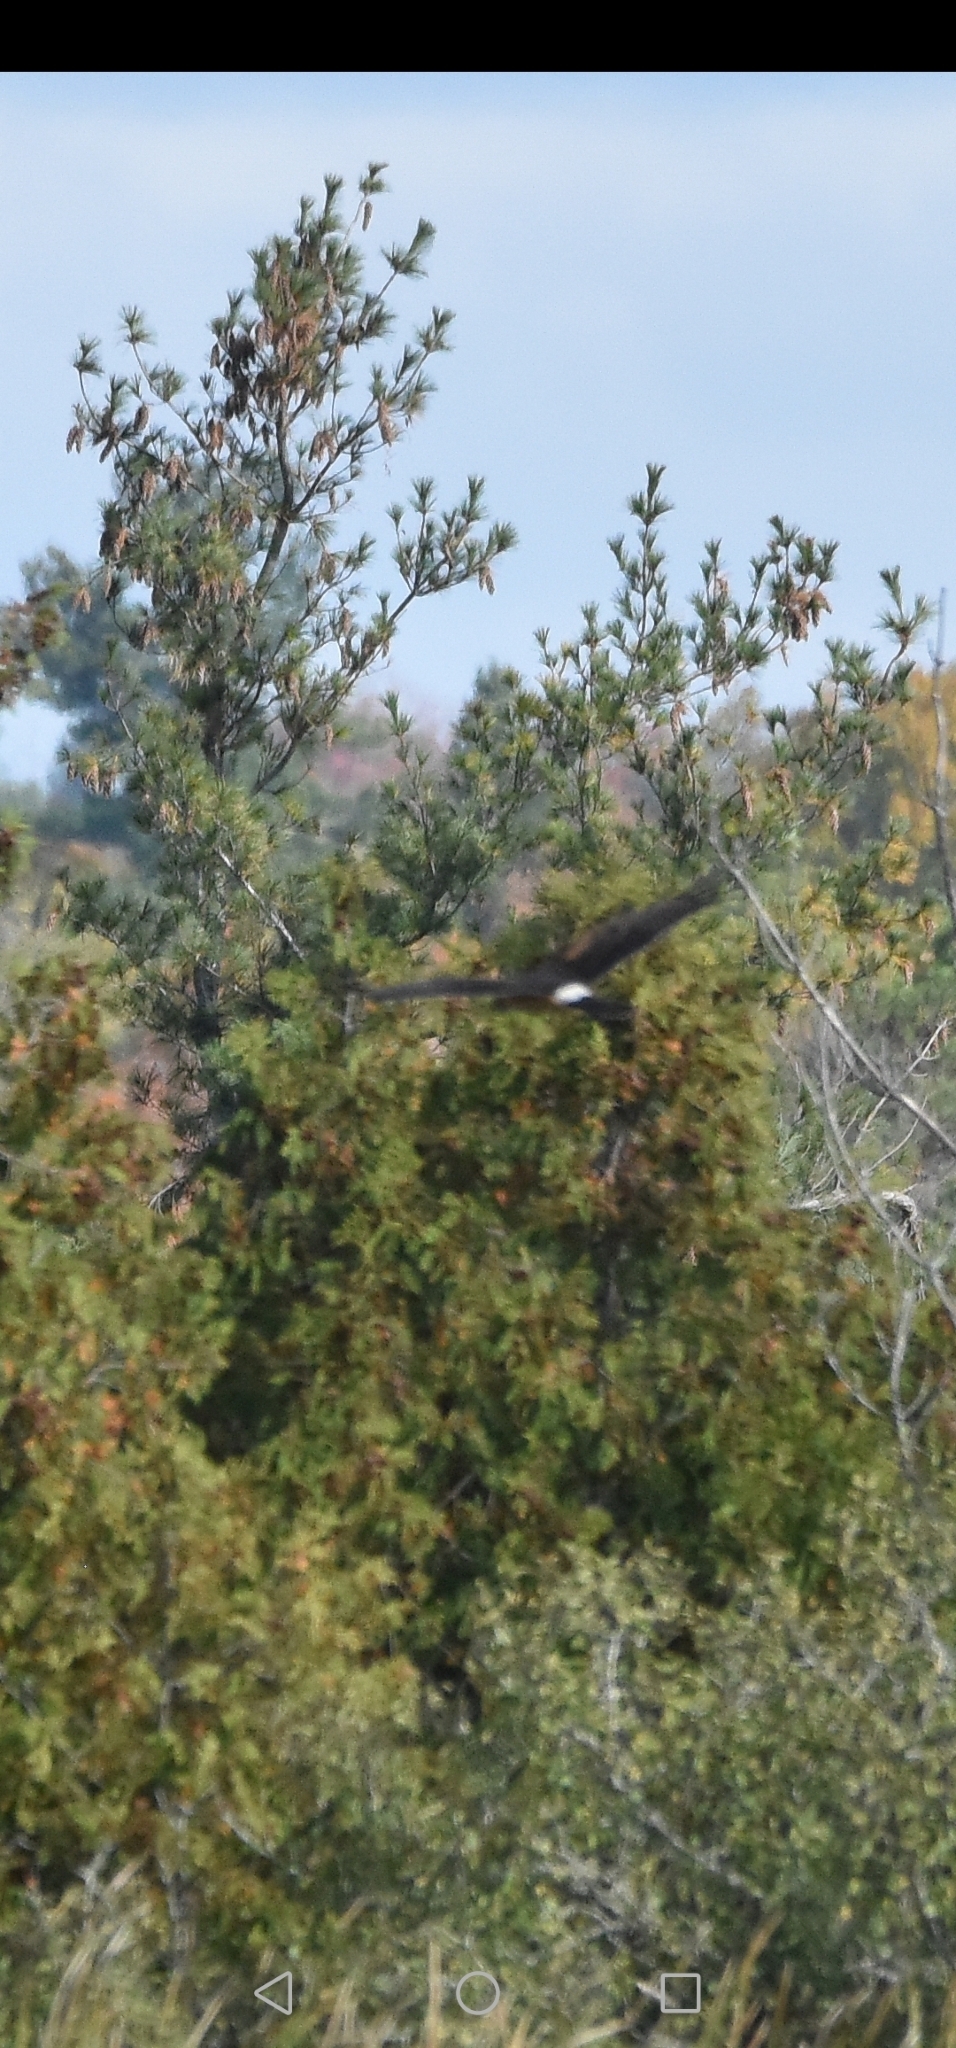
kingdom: Animalia
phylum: Chordata
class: Aves
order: Accipitriformes
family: Accipitridae
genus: Circus
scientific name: Circus cyaneus
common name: Hen harrier
